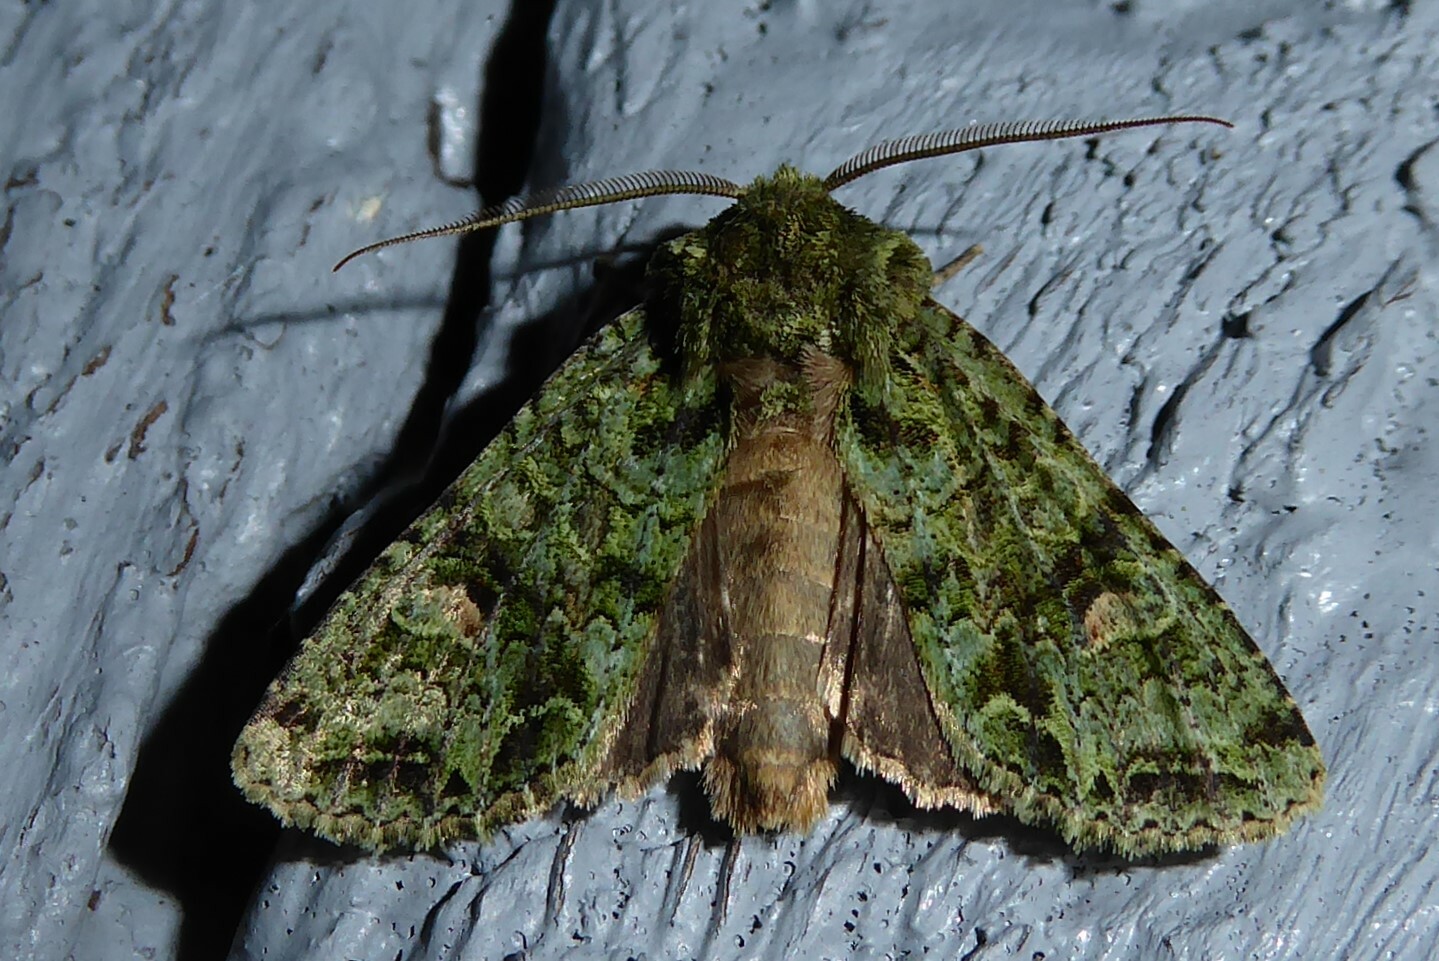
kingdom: Animalia
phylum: Arthropoda
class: Insecta
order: Lepidoptera
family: Noctuidae
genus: Ichneutica
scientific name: Ichneutica
